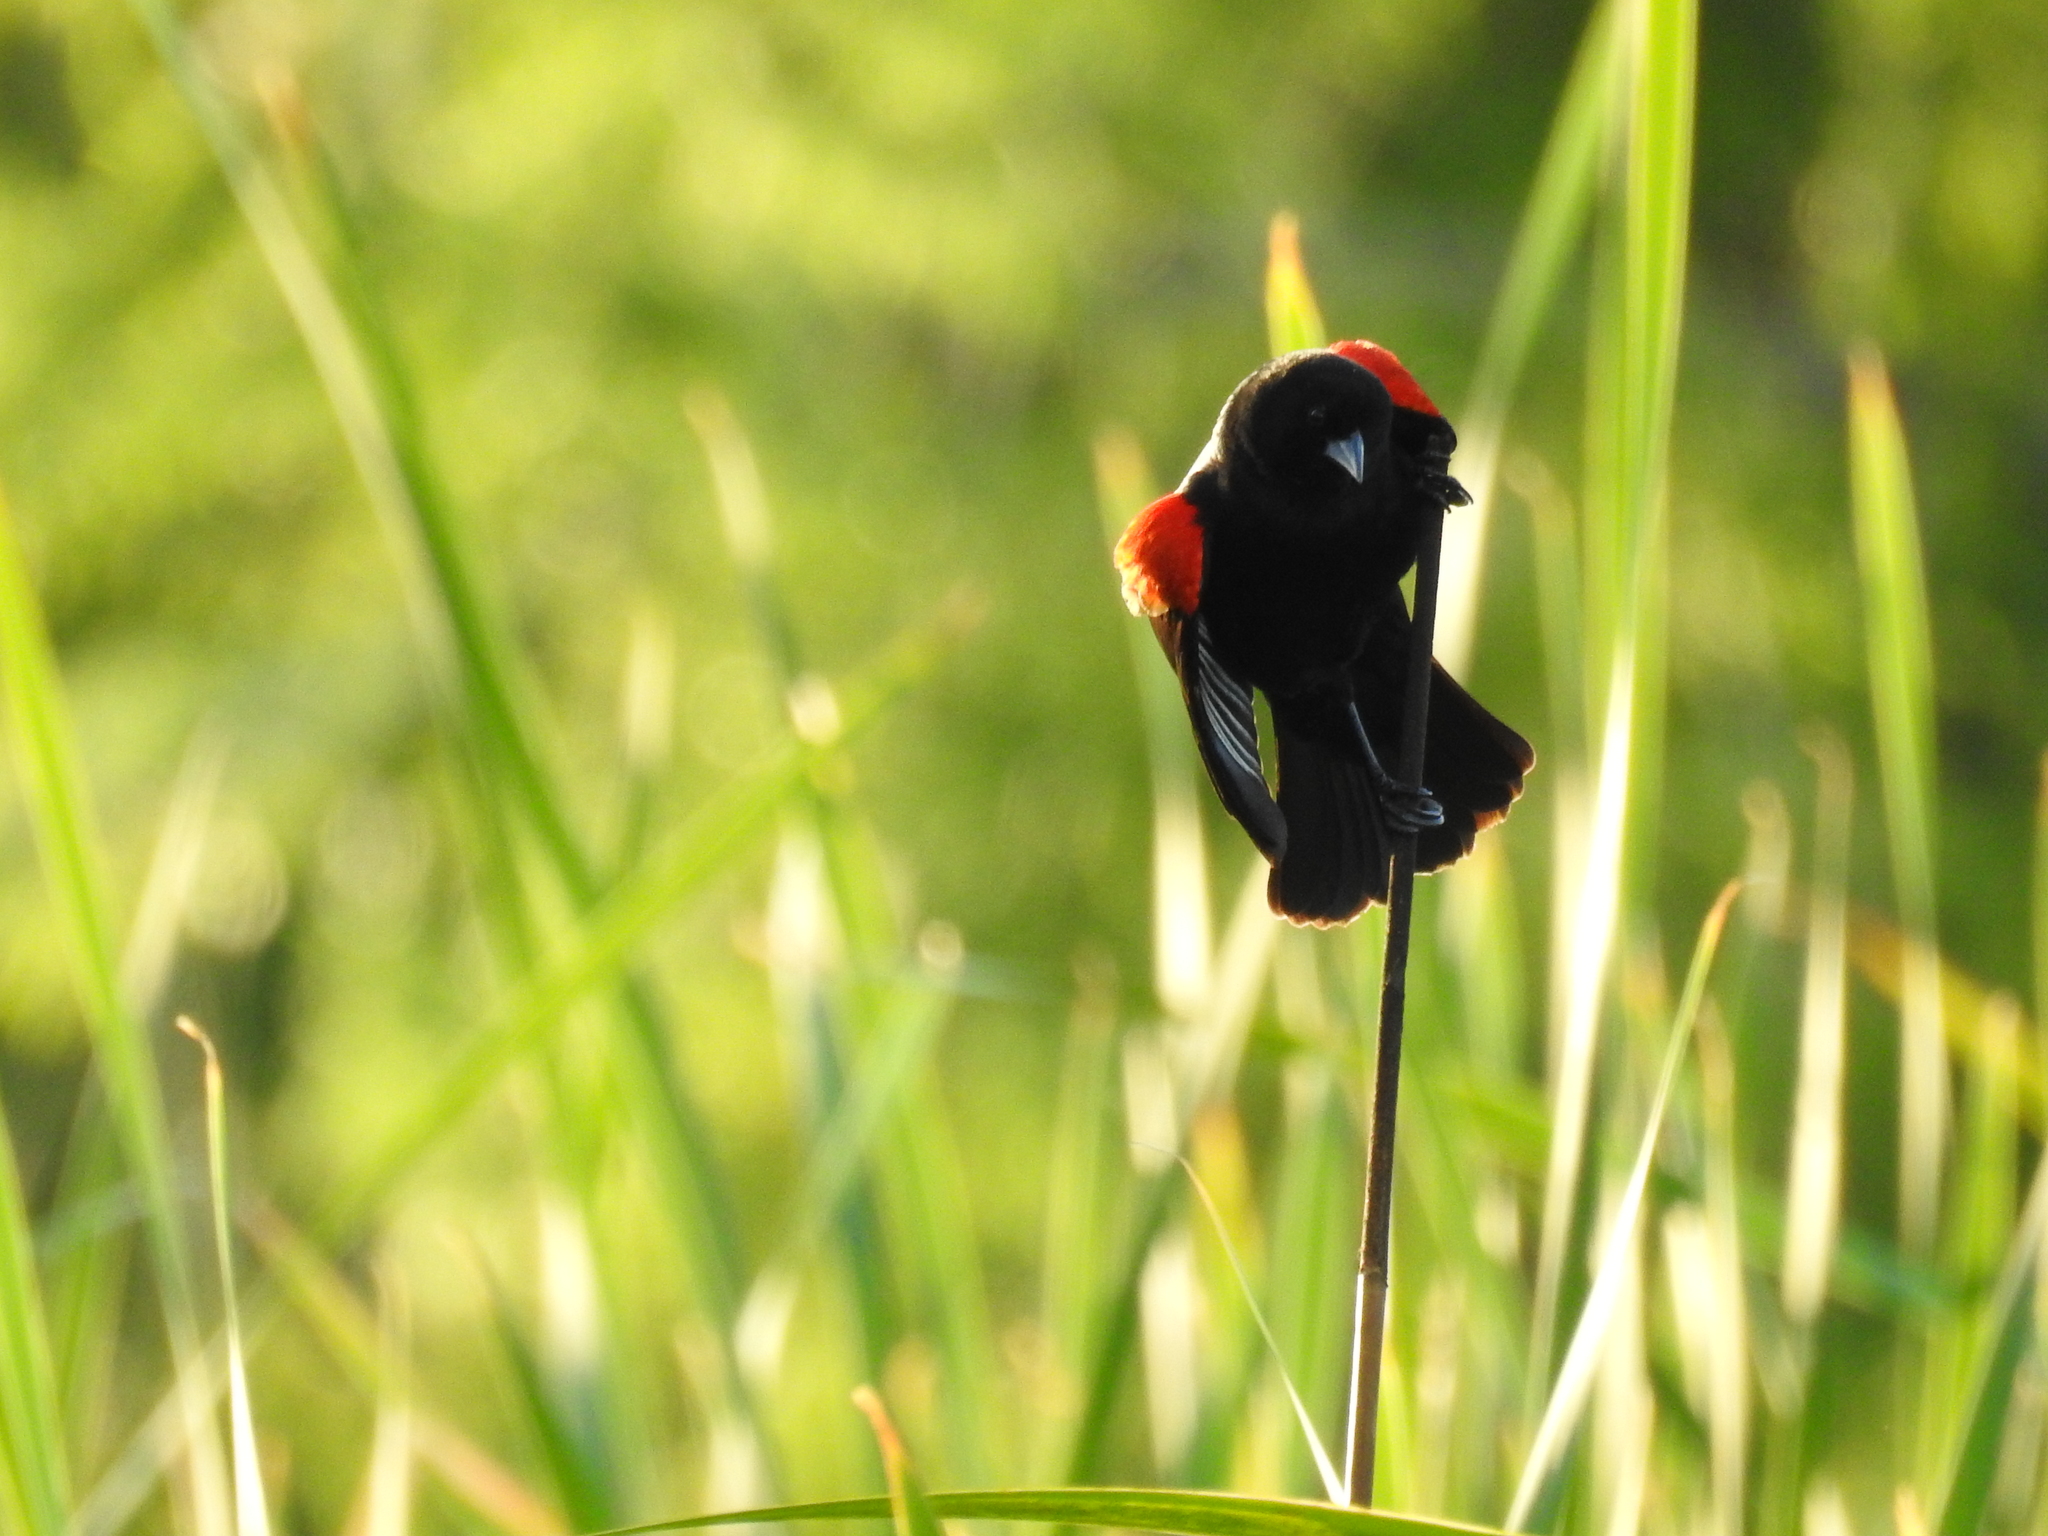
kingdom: Animalia
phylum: Chordata
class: Aves
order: Passeriformes
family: Icteridae
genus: Agelaius
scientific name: Agelaius phoeniceus
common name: Red-winged blackbird
